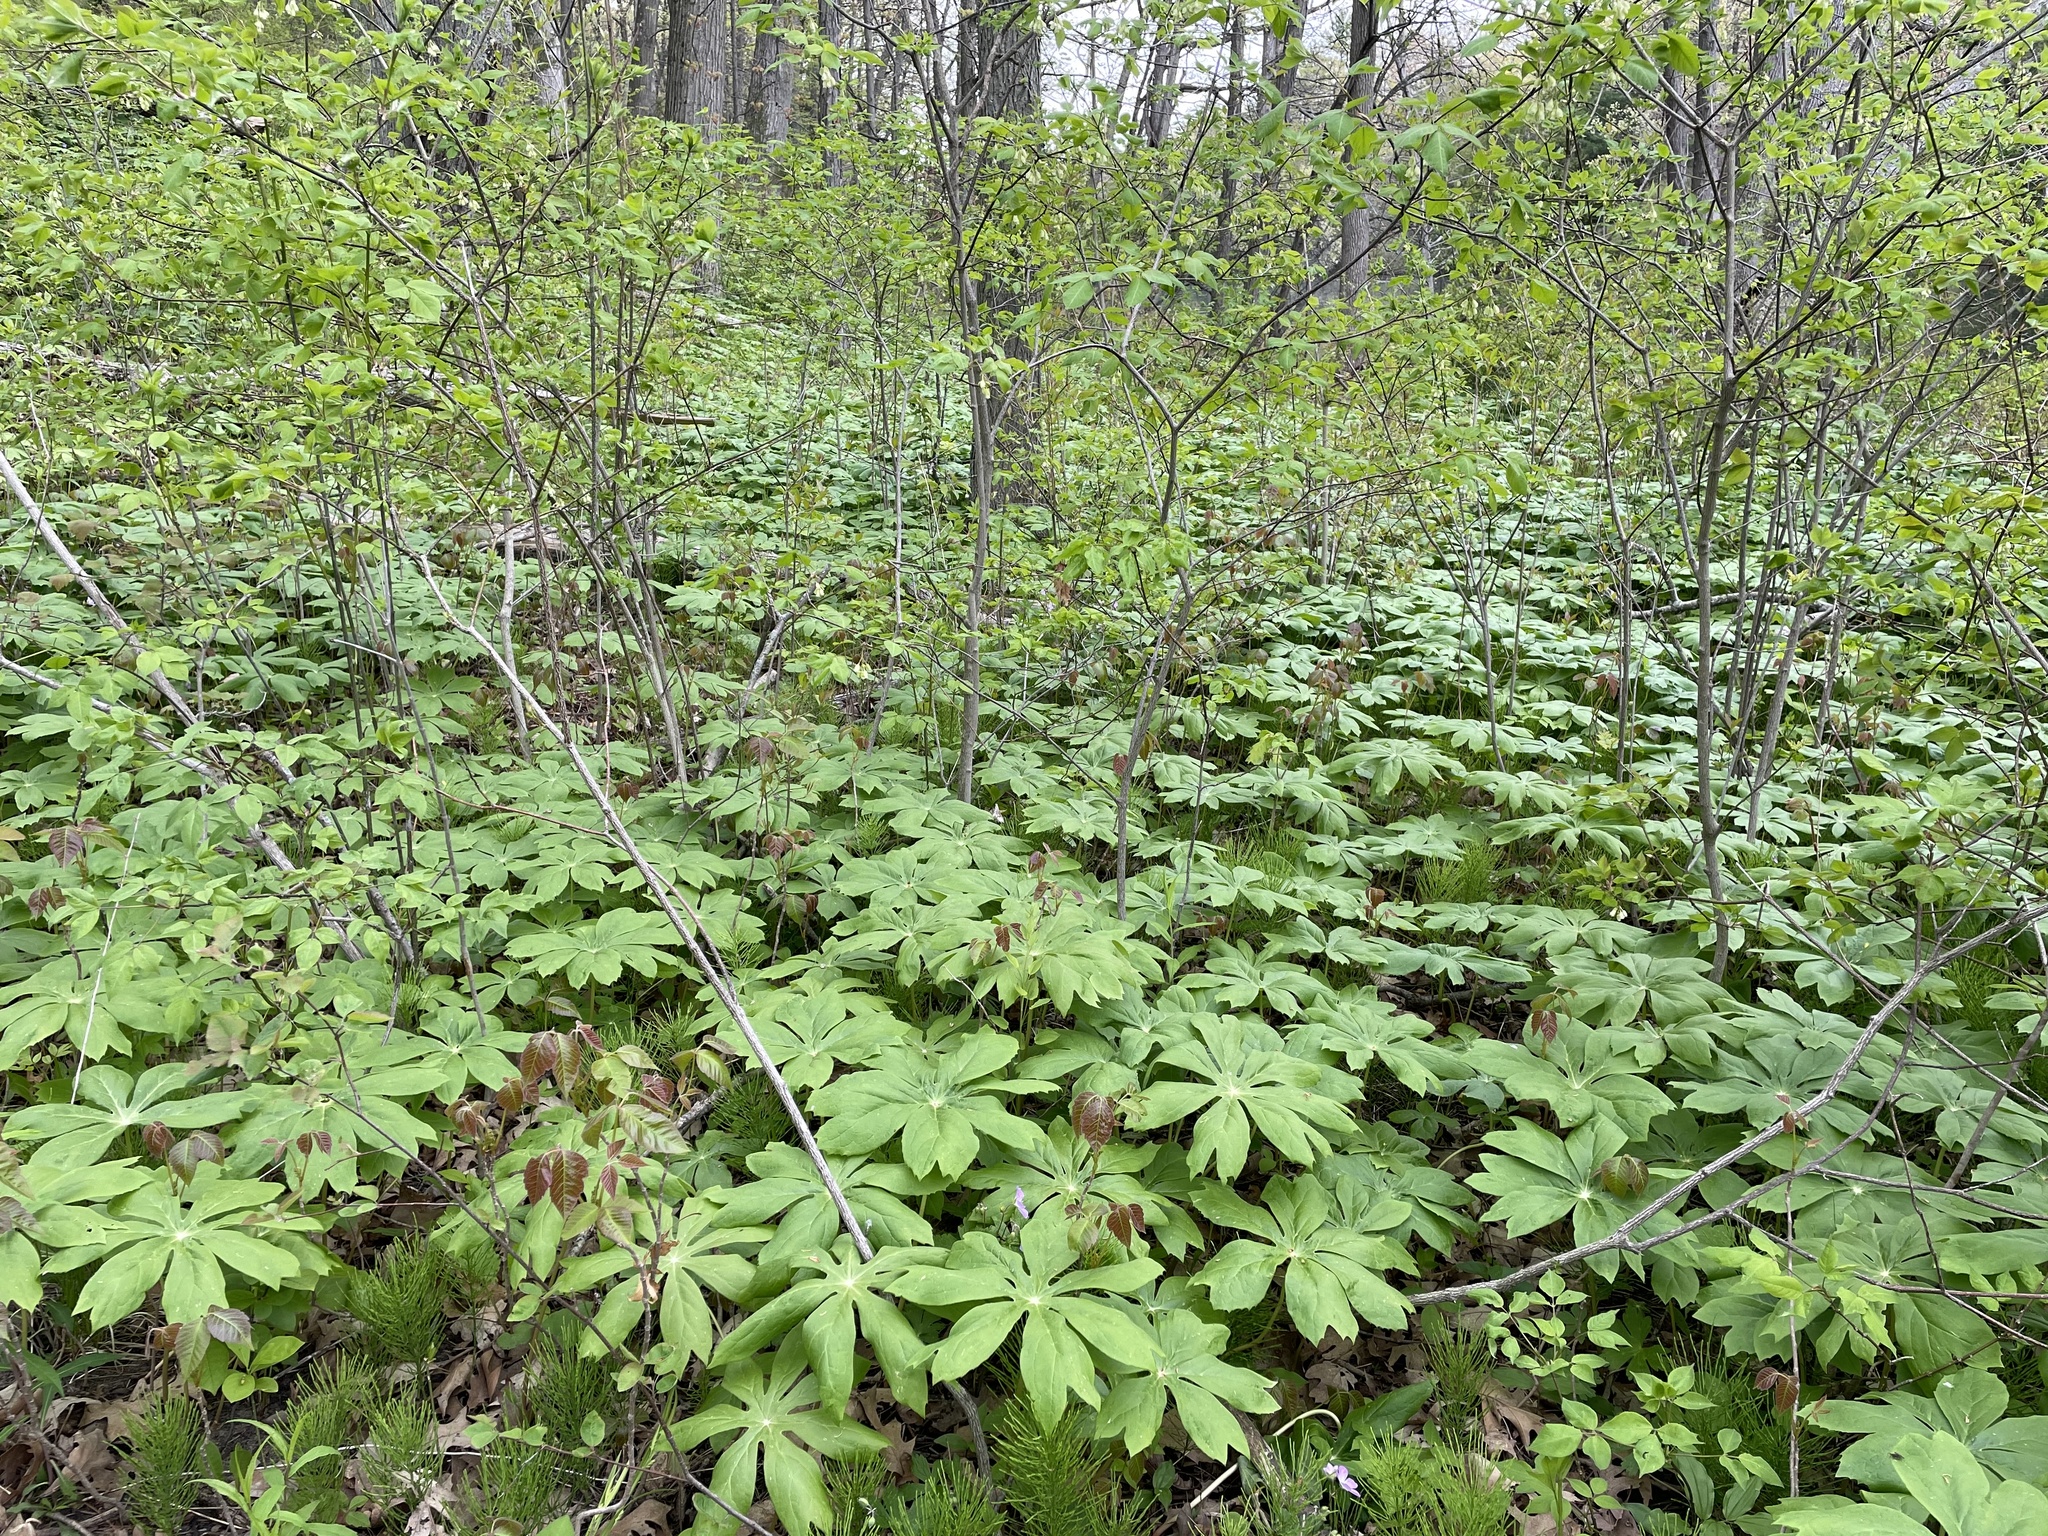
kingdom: Plantae
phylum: Tracheophyta
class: Magnoliopsida
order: Ranunculales
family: Berberidaceae
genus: Podophyllum
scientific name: Podophyllum peltatum
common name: Wild mandrake
